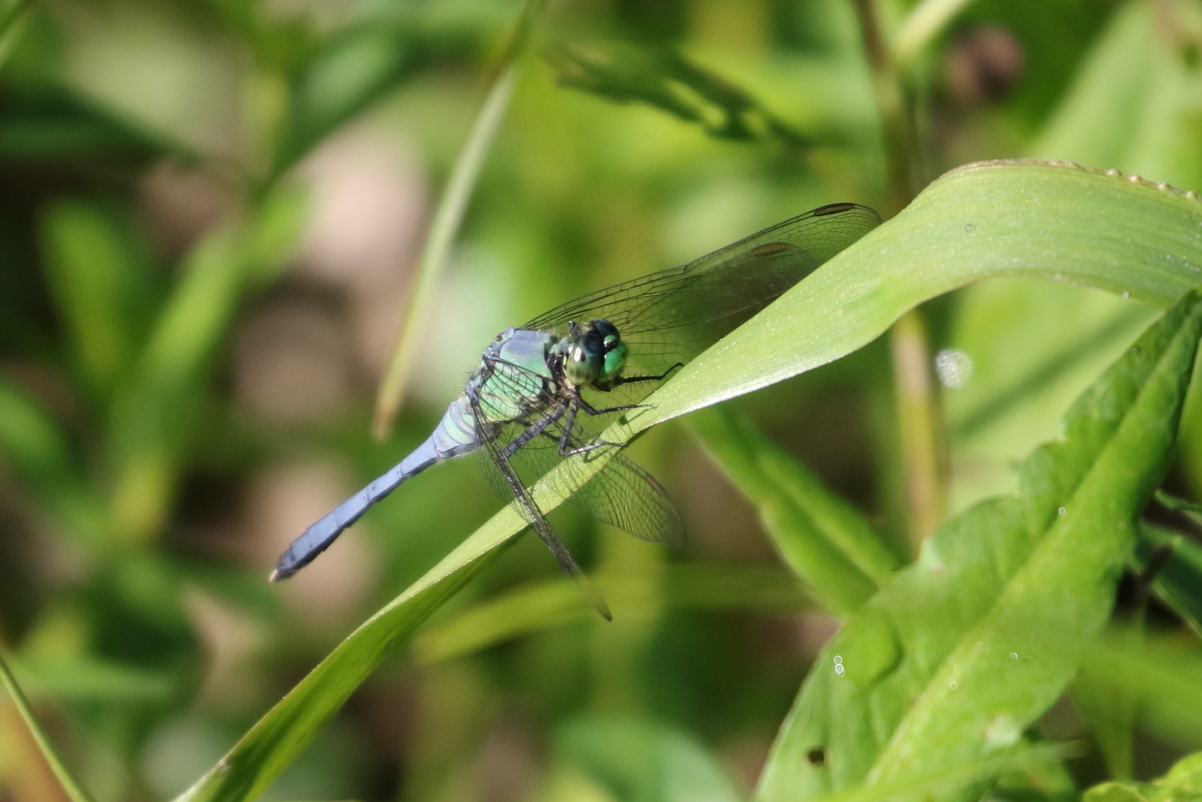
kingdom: Animalia
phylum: Arthropoda
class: Insecta
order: Odonata
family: Libellulidae
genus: Erythemis
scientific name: Erythemis simplicicollis
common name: Eastern pondhawk
